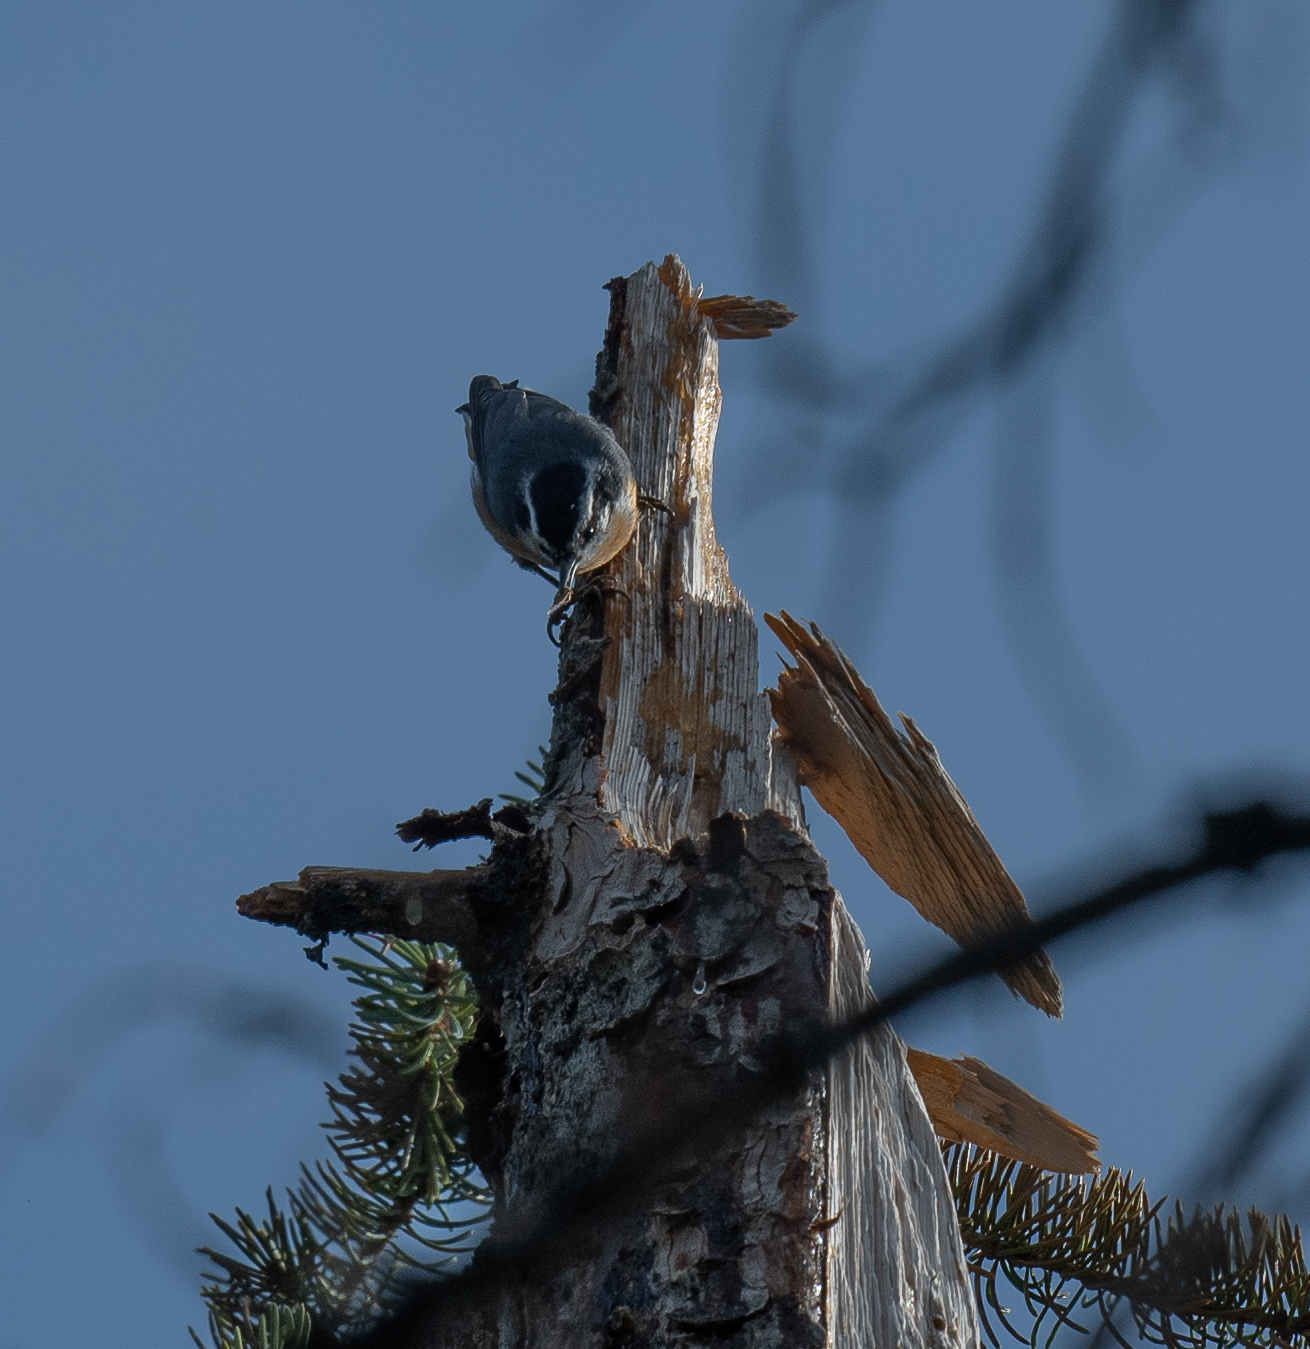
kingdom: Animalia
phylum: Chordata
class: Aves
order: Passeriformes
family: Sittidae
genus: Sitta
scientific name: Sitta canadensis
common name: Red-breasted nuthatch
